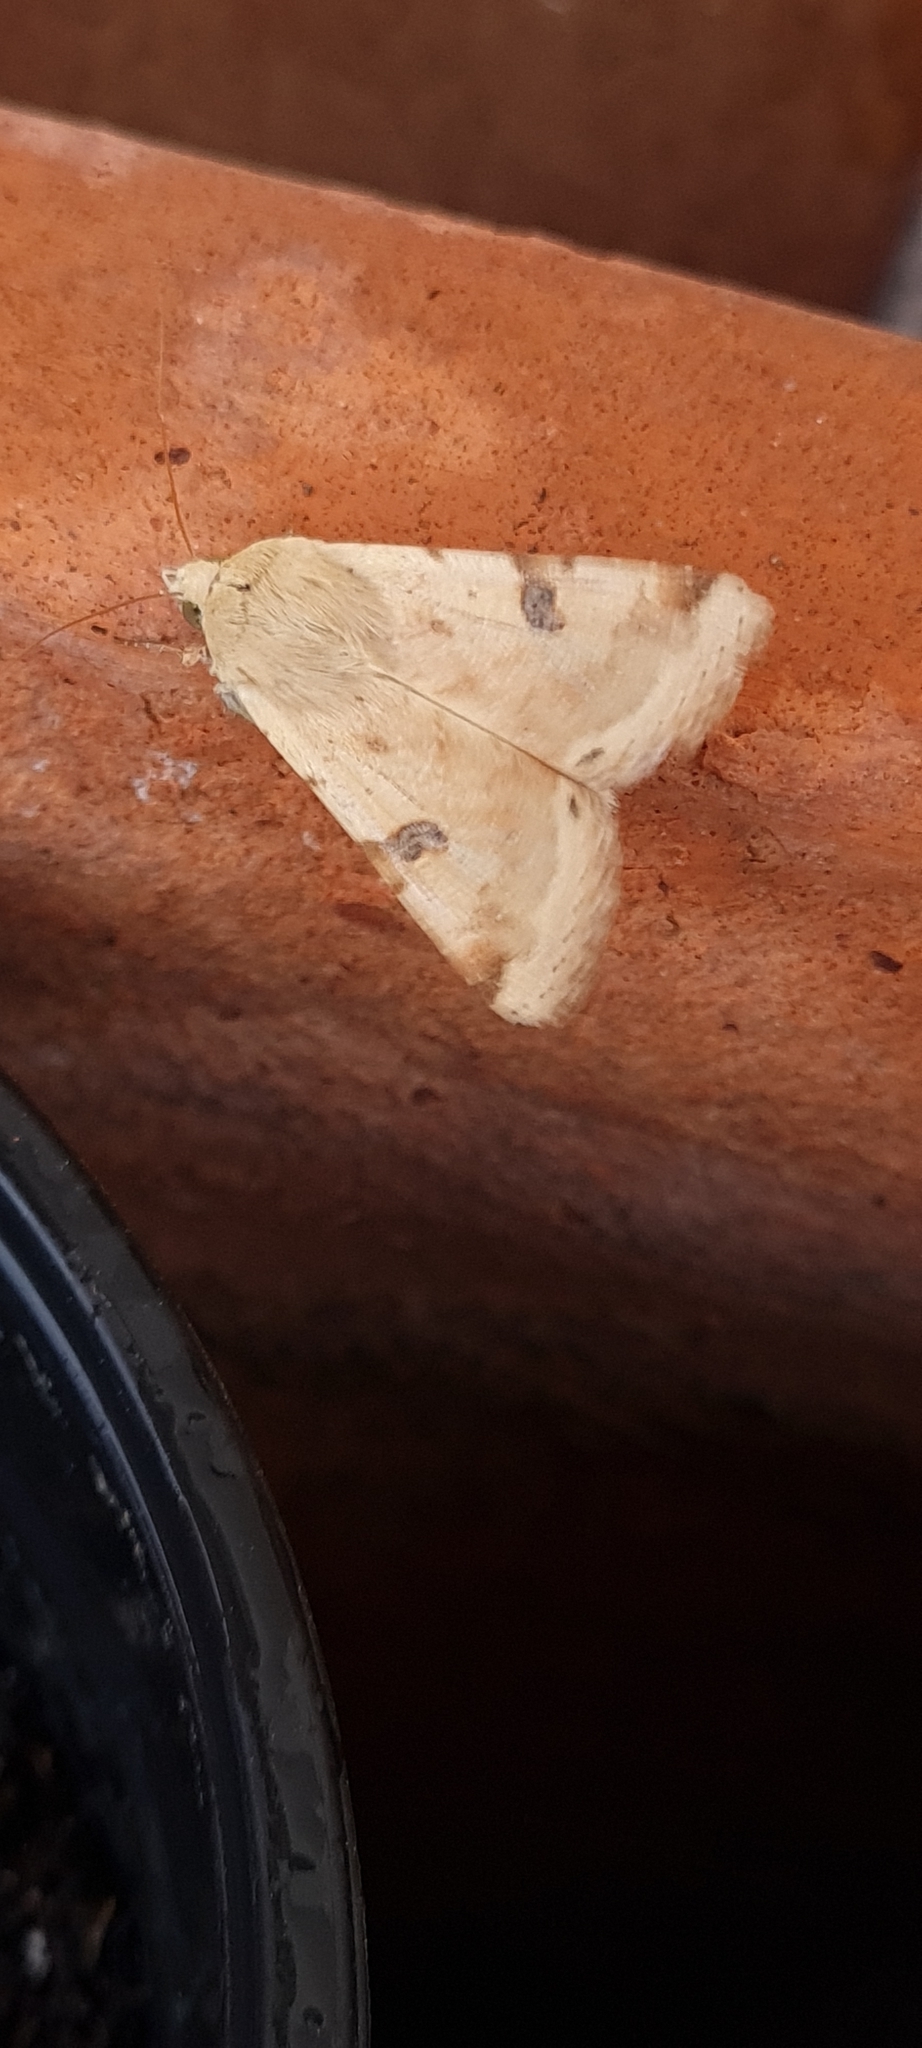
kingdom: Animalia
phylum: Arthropoda
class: Insecta
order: Lepidoptera
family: Noctuidae
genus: Heliothis
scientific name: Heliothis peltigera
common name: Bordered straw
